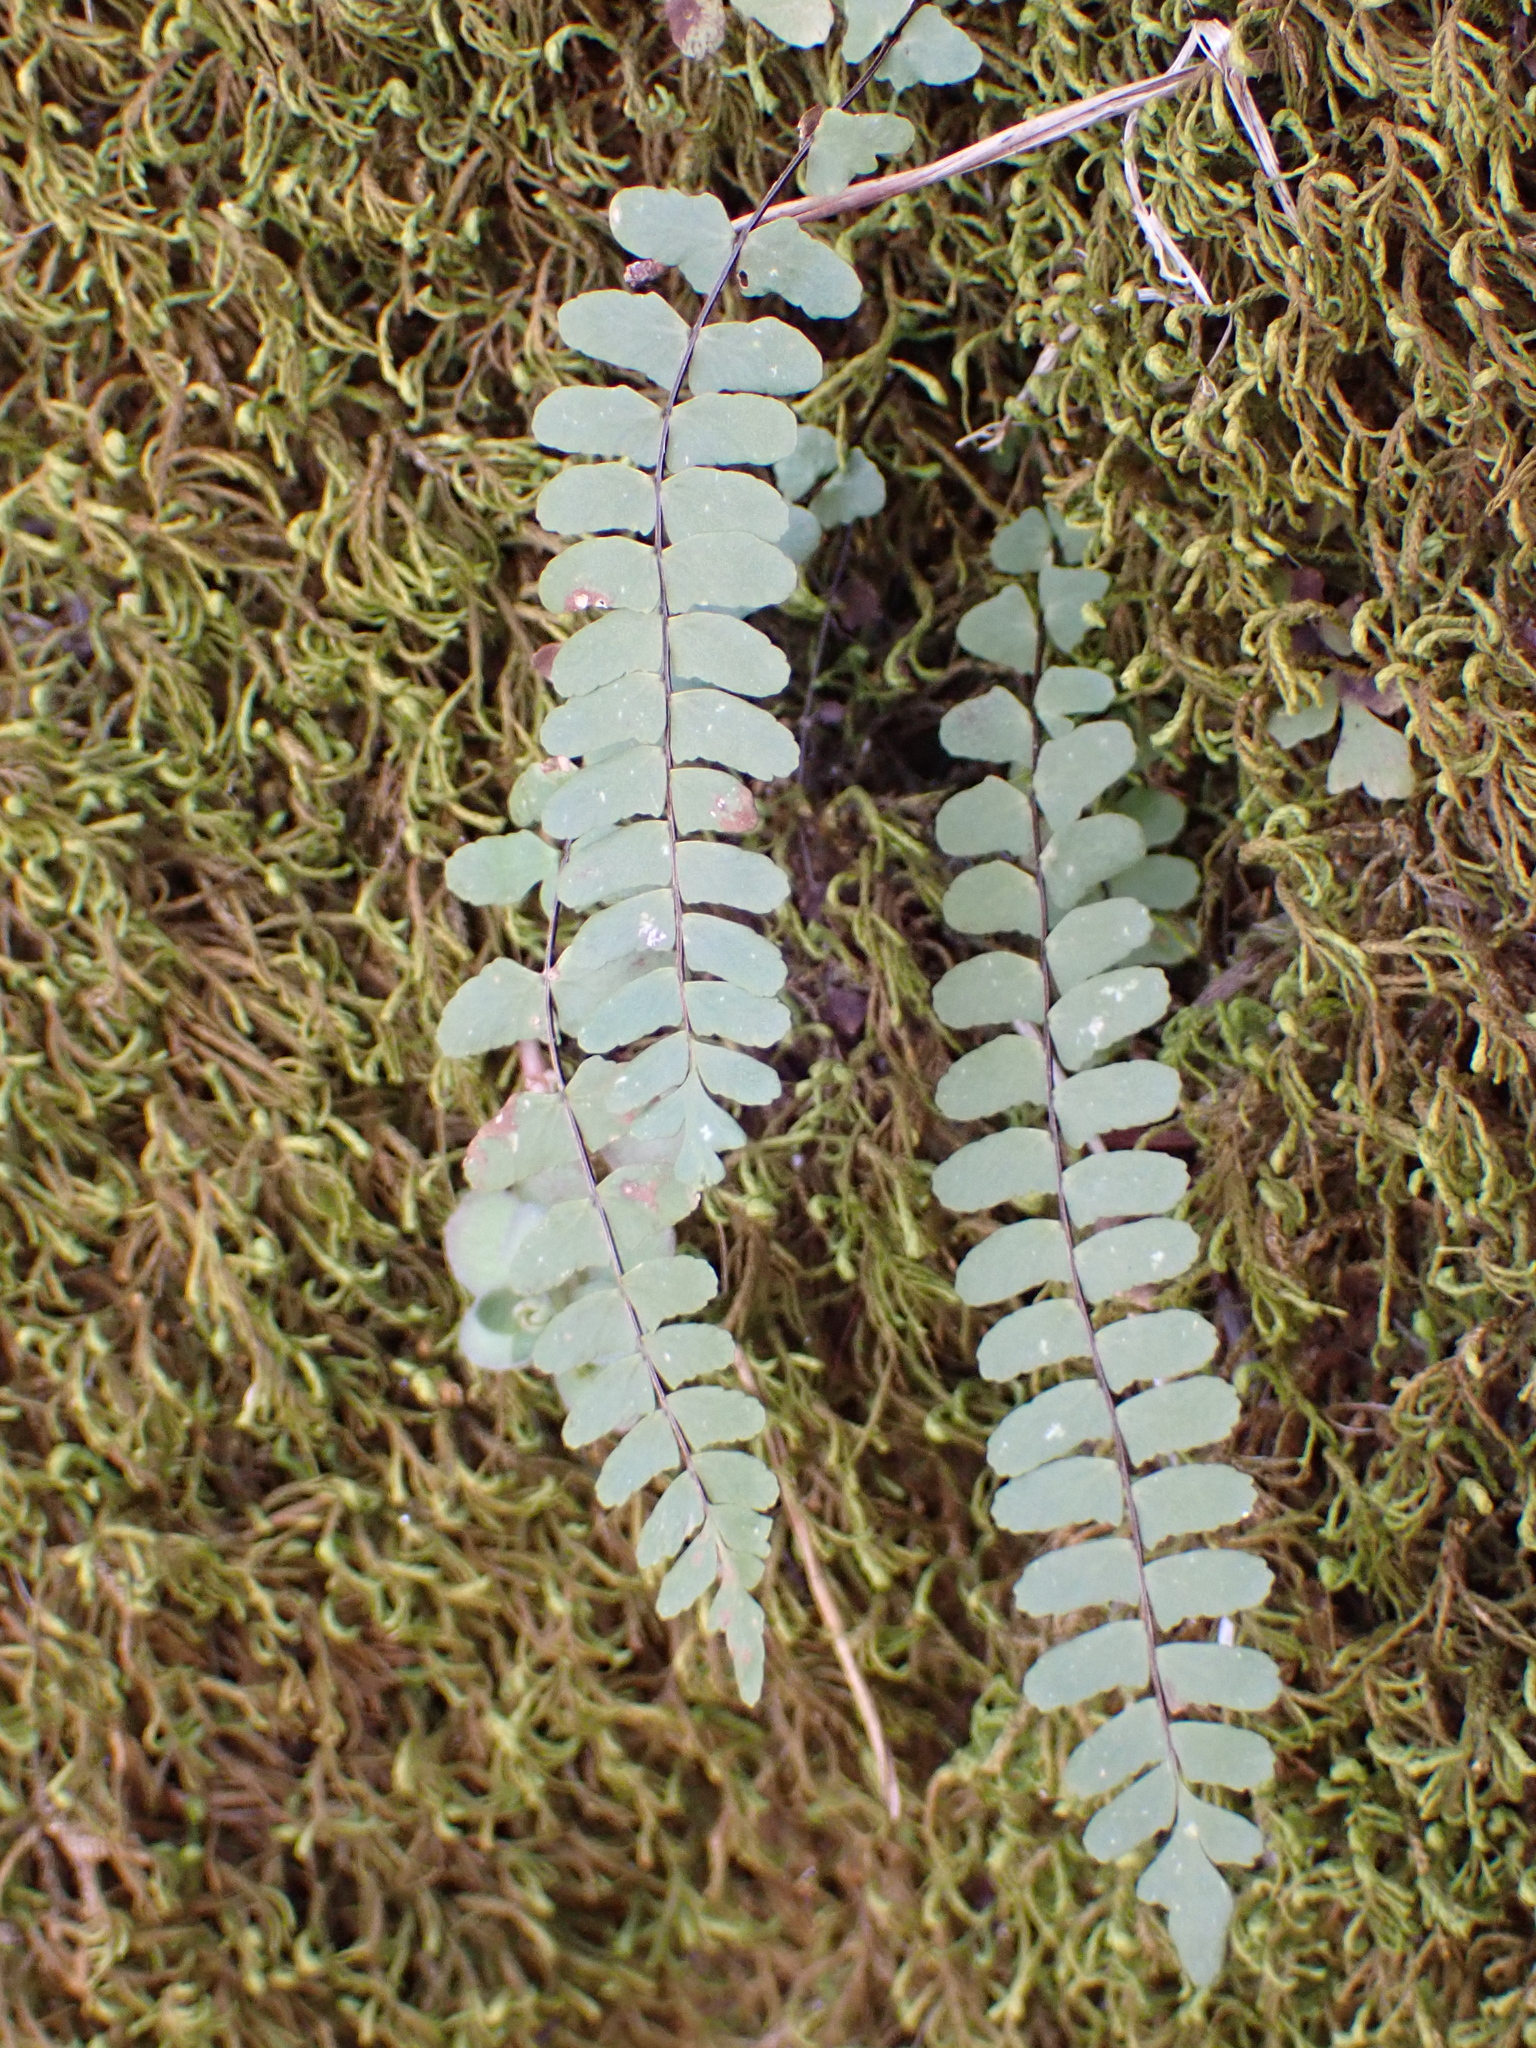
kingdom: Plantae
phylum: Tracheophyta
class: Polypodiopsida
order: Polypodiales
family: Aspleniaceae
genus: Asplenium
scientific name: Asplenium resiliens
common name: Blackstem spleenwort
